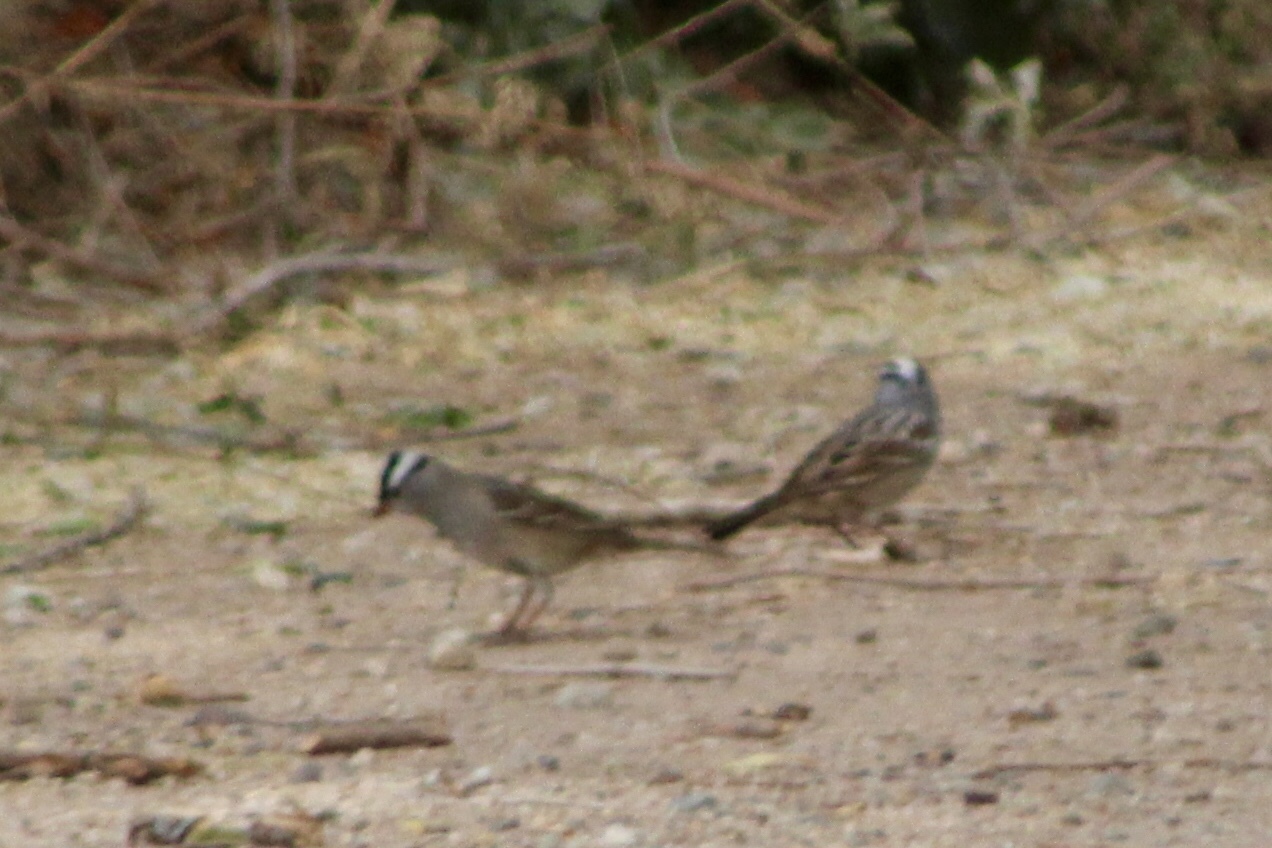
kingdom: Animalia
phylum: Chordata
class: Aves
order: Passeriformes
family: Passerellidae
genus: Zonotrichia
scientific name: Zonotrichia leucophrys
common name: White-crowned sparrow
